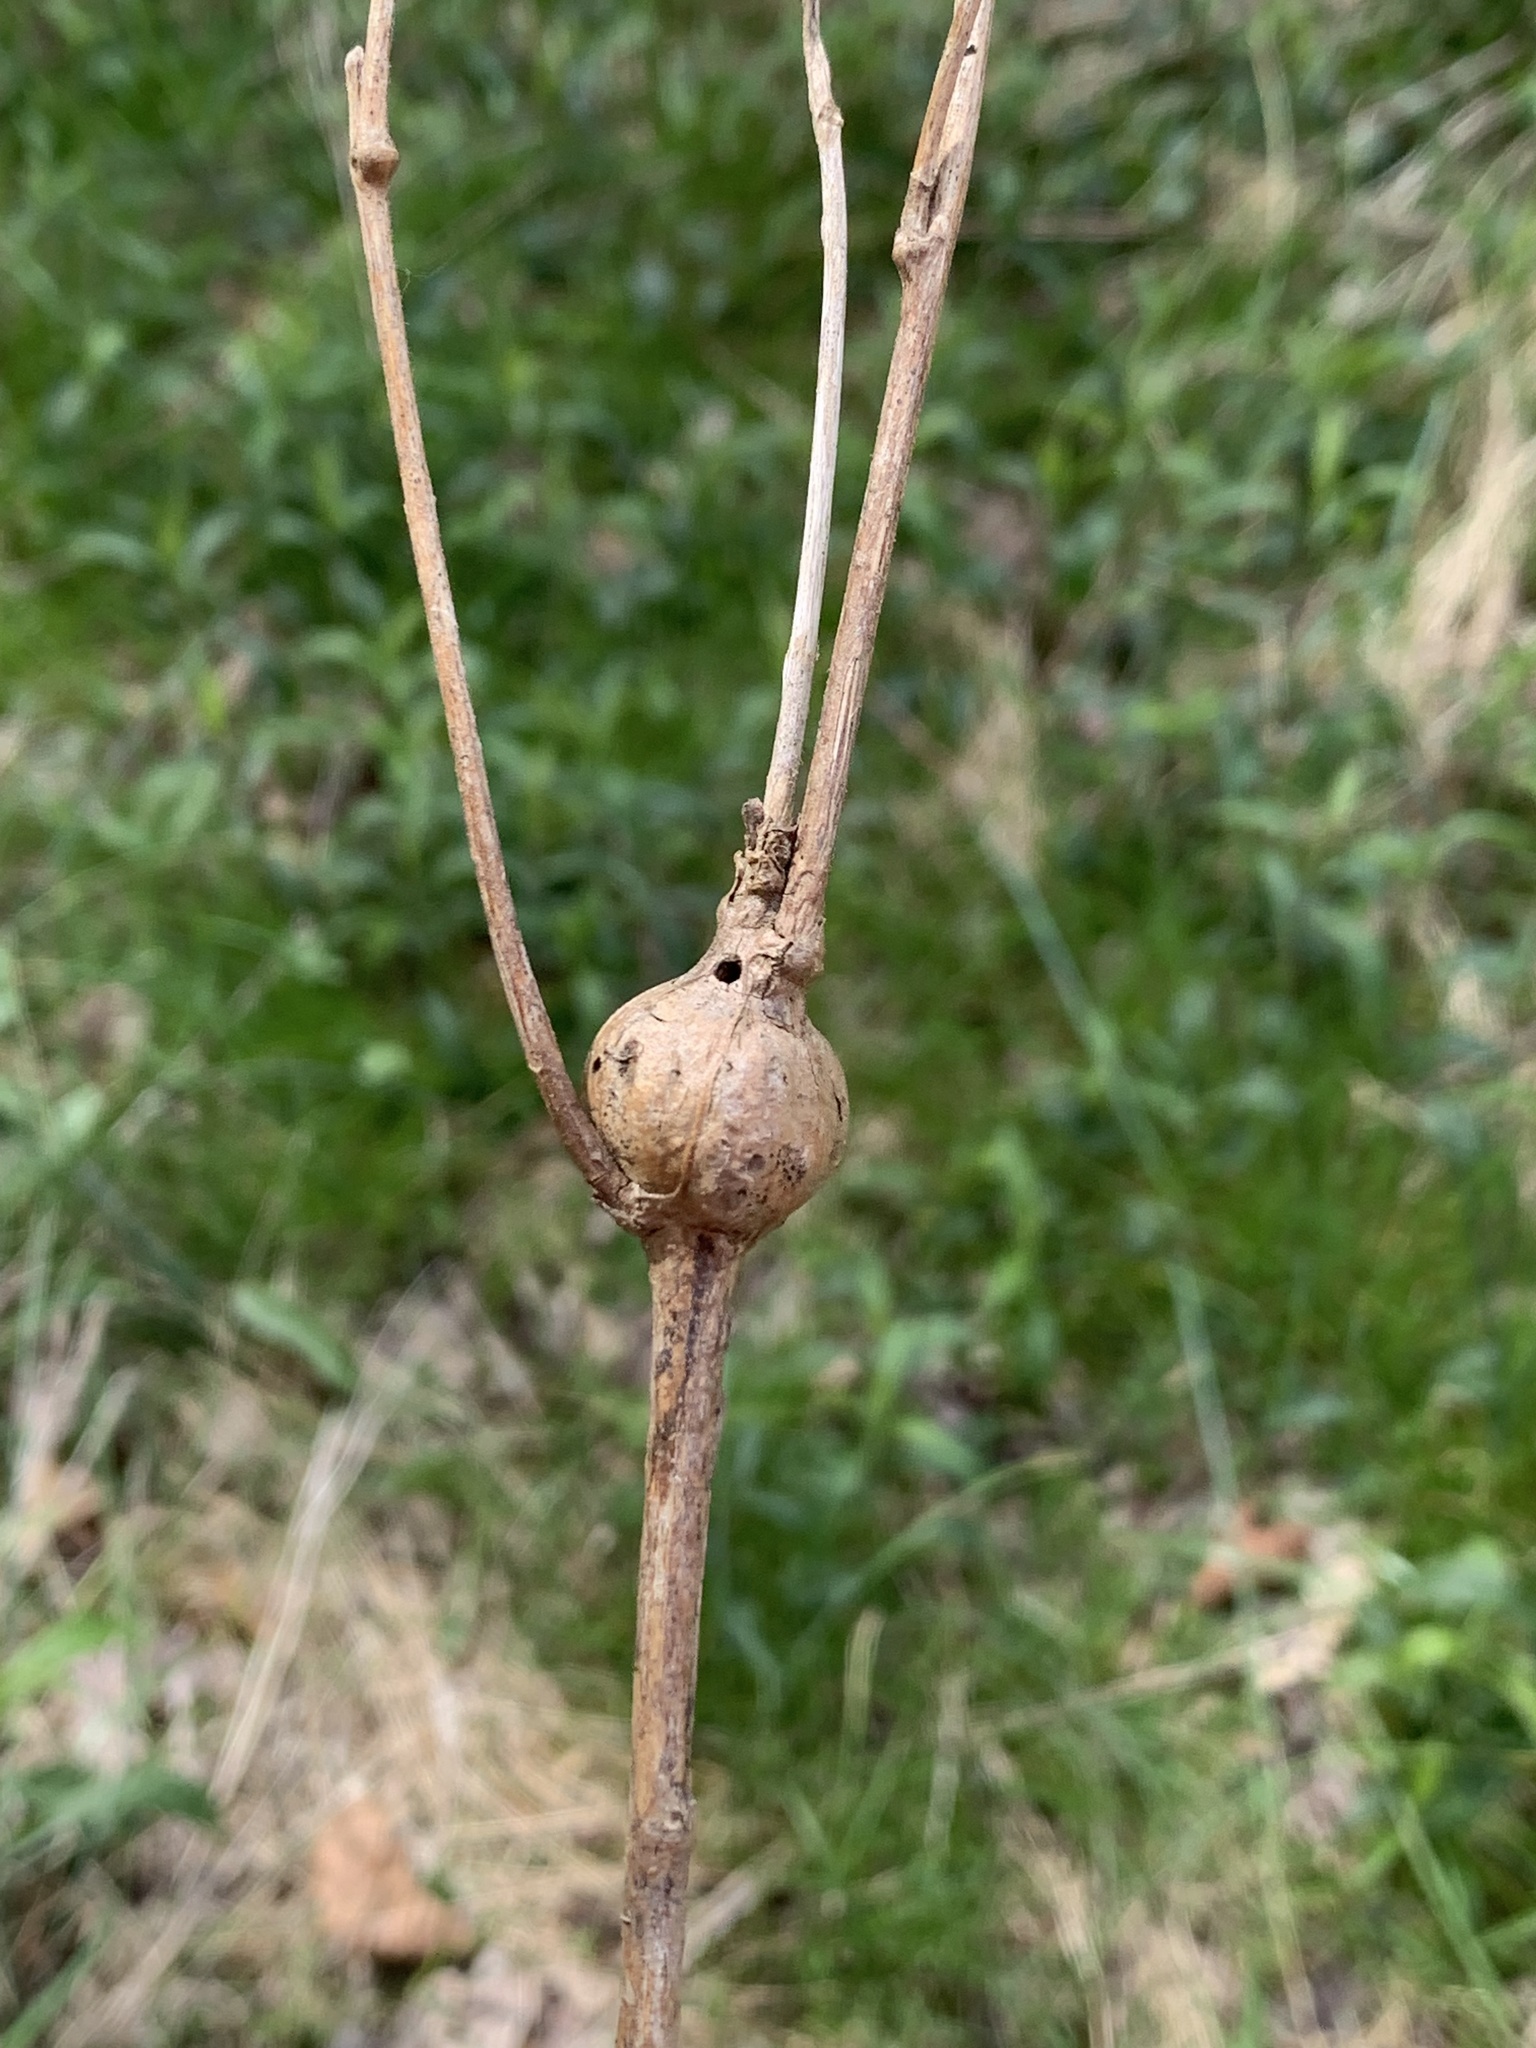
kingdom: Animalia
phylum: Arthropoda
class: Insecta
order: Diptera
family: Tephritidae
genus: Eurosta
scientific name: Eurosta solidaginis
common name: Goldenrod gall fly
